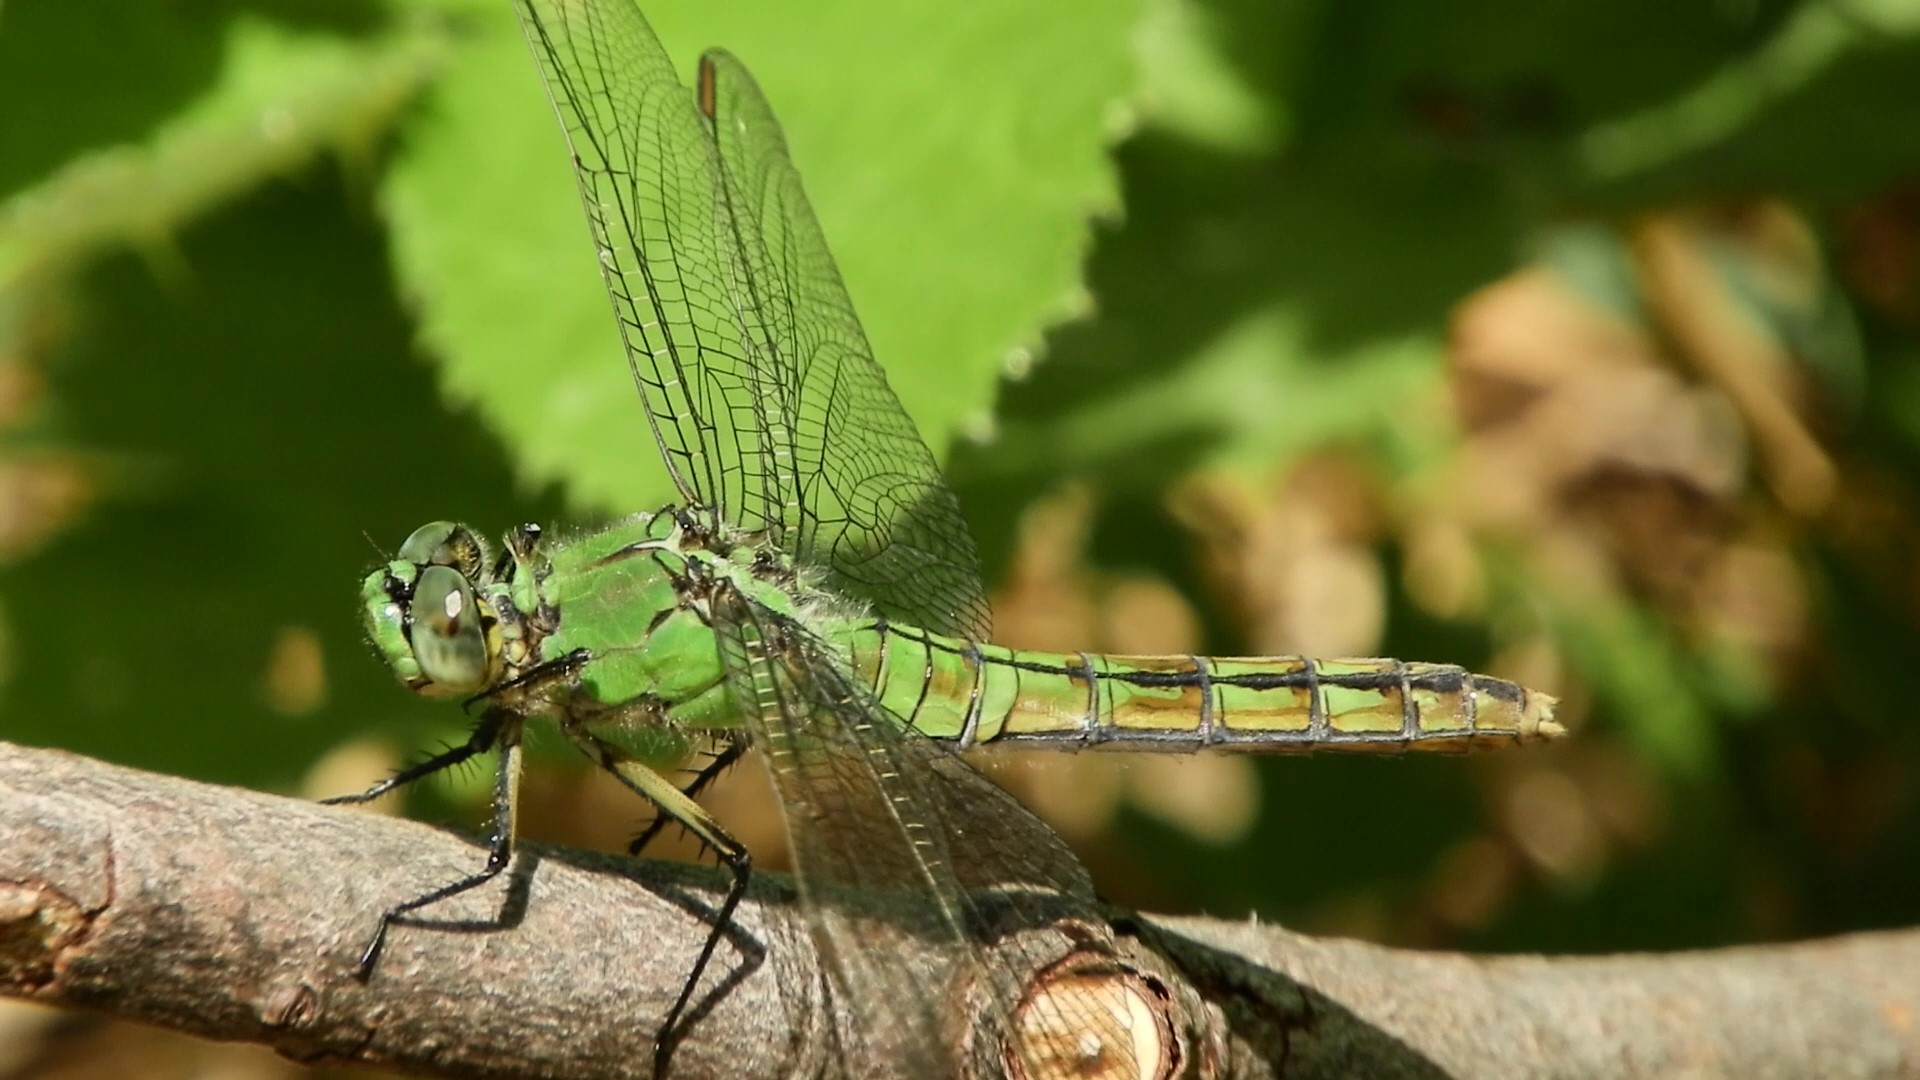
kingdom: Animalia
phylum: Arthropoda
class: Insecta
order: Odonata
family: Libellulidae
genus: Erythemis
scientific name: Erythemis collocata
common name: Western pondhawk
